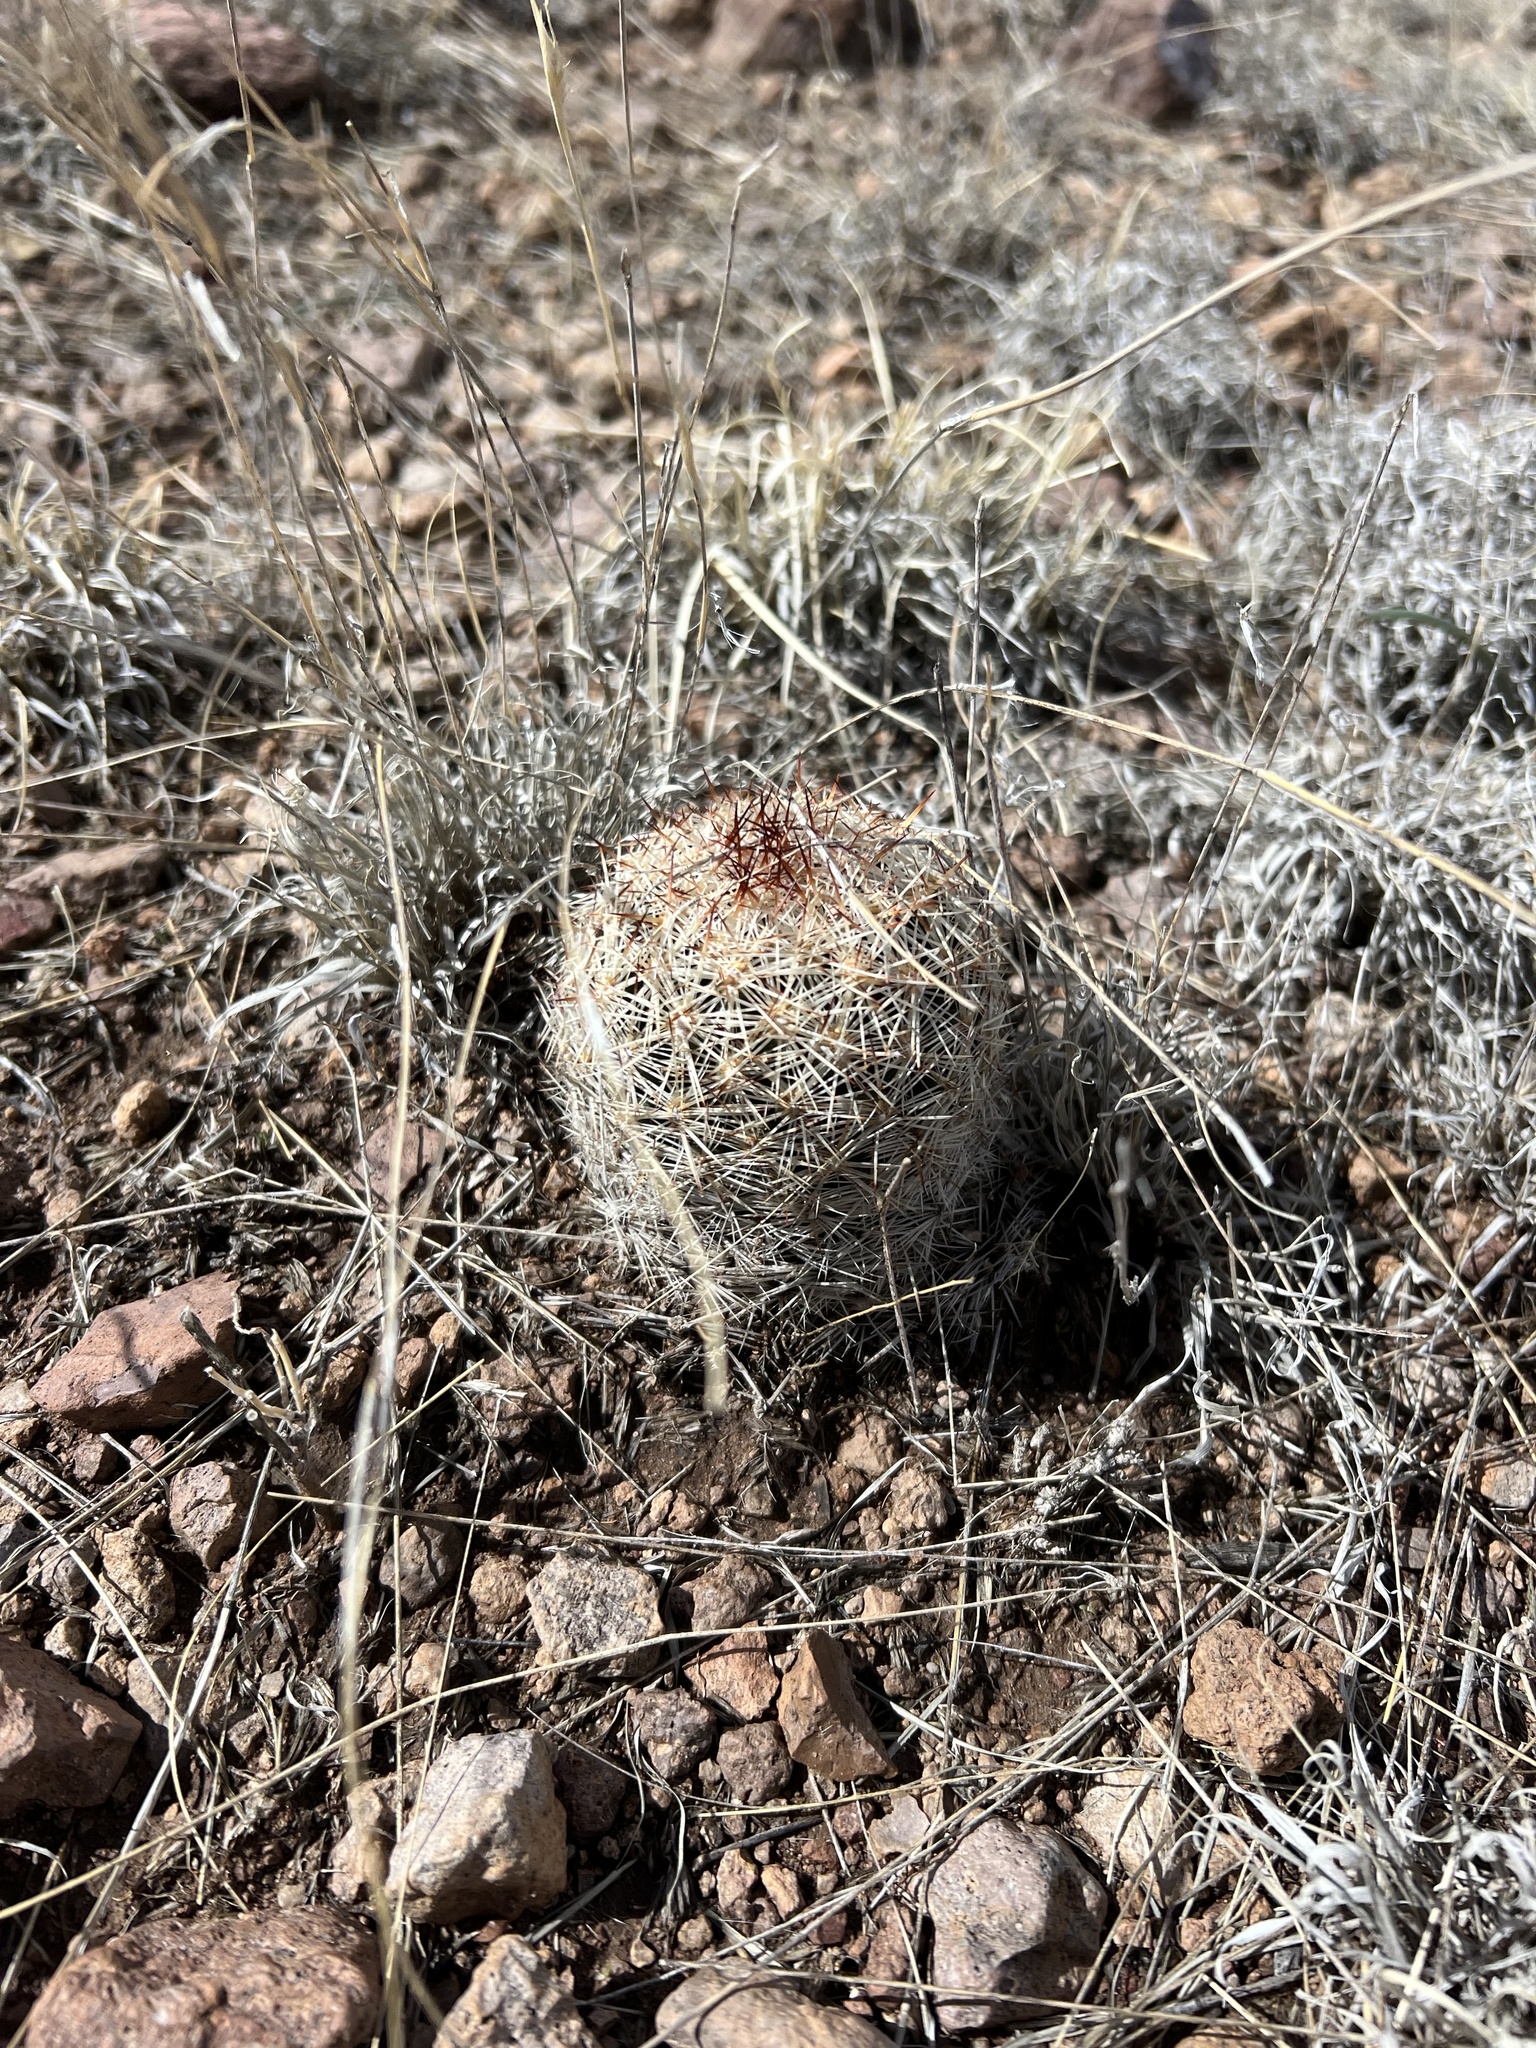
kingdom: Plantae
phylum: Tracheophyta
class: Magnoliopsida
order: Caryophyllales
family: Cactaceae
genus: Pelecyphora
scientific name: Pelecyphora vivipara
